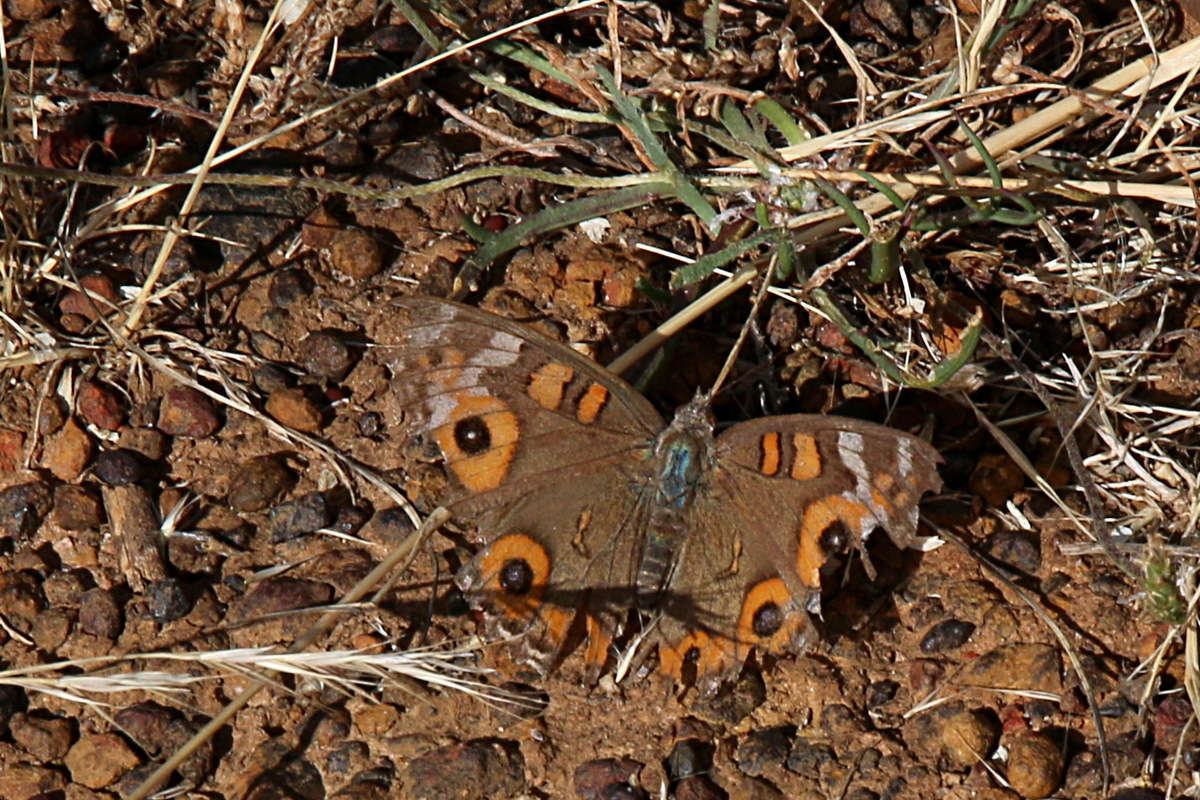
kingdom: Animalia
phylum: Arthropoda
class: Insecta
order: Lepidoptera
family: Nymphalidae
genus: Junonia
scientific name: Junonia villida
